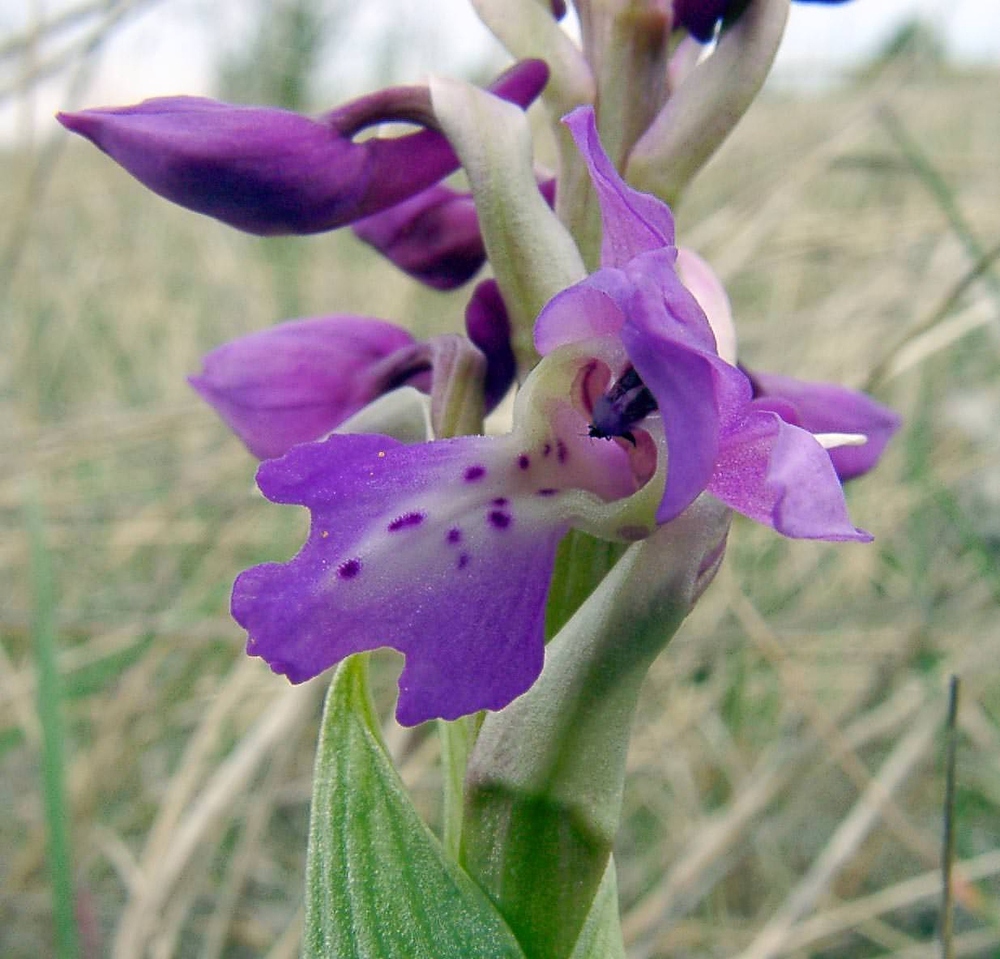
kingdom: Plantae
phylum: Tracheophyta
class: Liliopsida
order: Asparagales
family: Orchidaceae
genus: Orchis
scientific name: Orchis mascula
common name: Early-purple orchid
